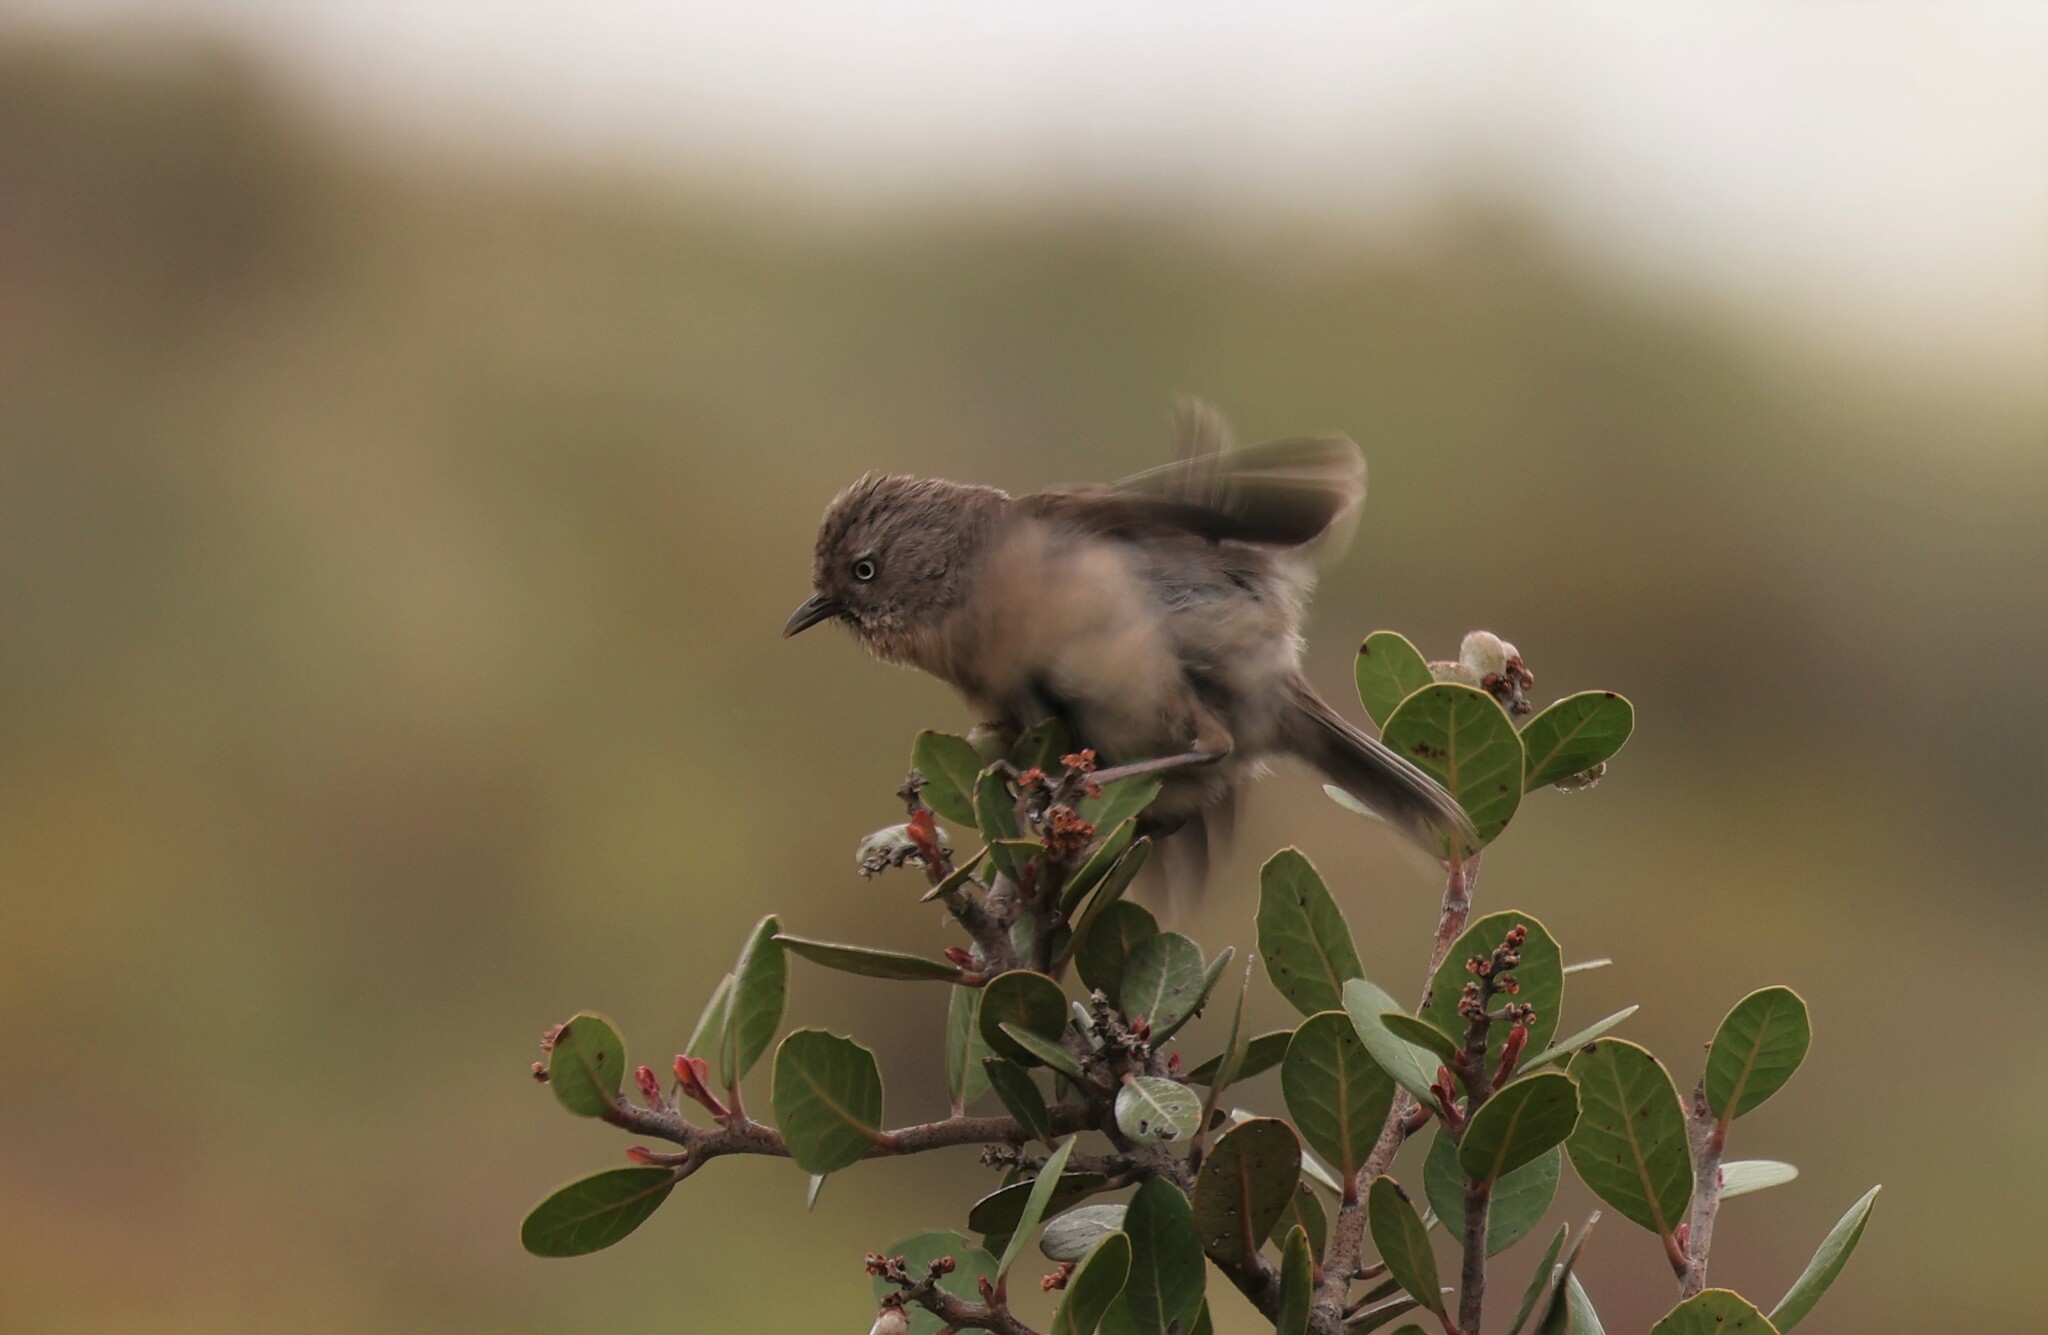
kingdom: Animalia
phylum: Chordata
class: Aves
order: Passeriformes
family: Sylviidae
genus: Chamaea
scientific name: Chamaea fasciata
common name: Wrentit
